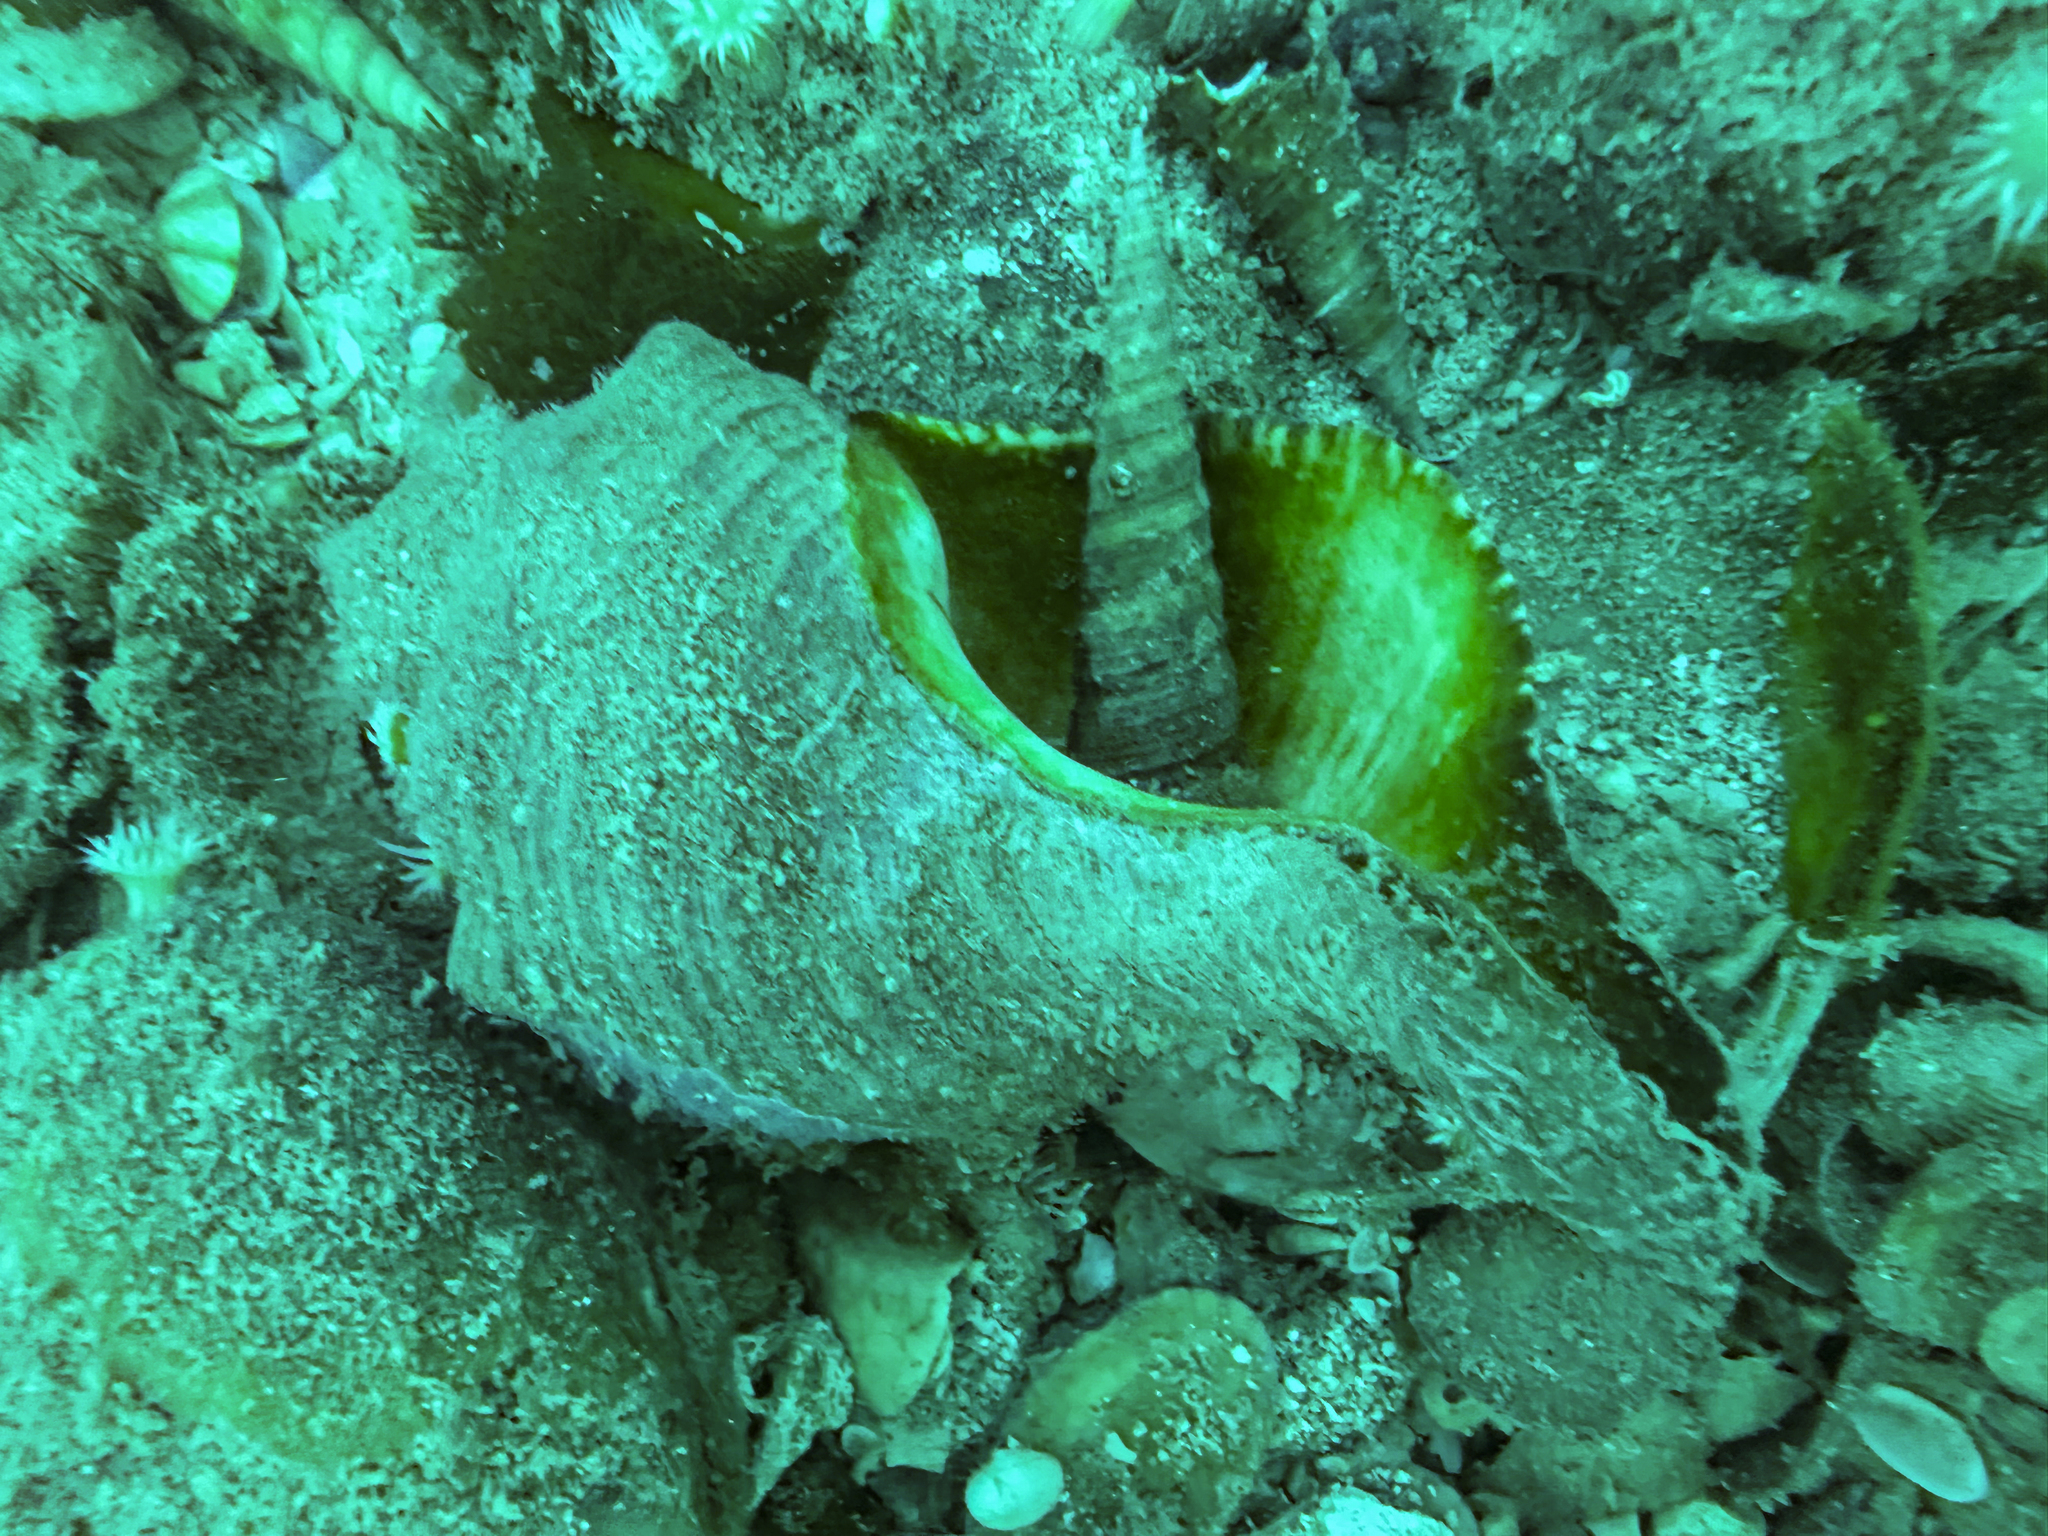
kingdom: Animalia
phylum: Mollusca
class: Gastropoda
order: Neogastropoda
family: Austrosiphonidae
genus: Penion
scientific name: Penion sulcatus
